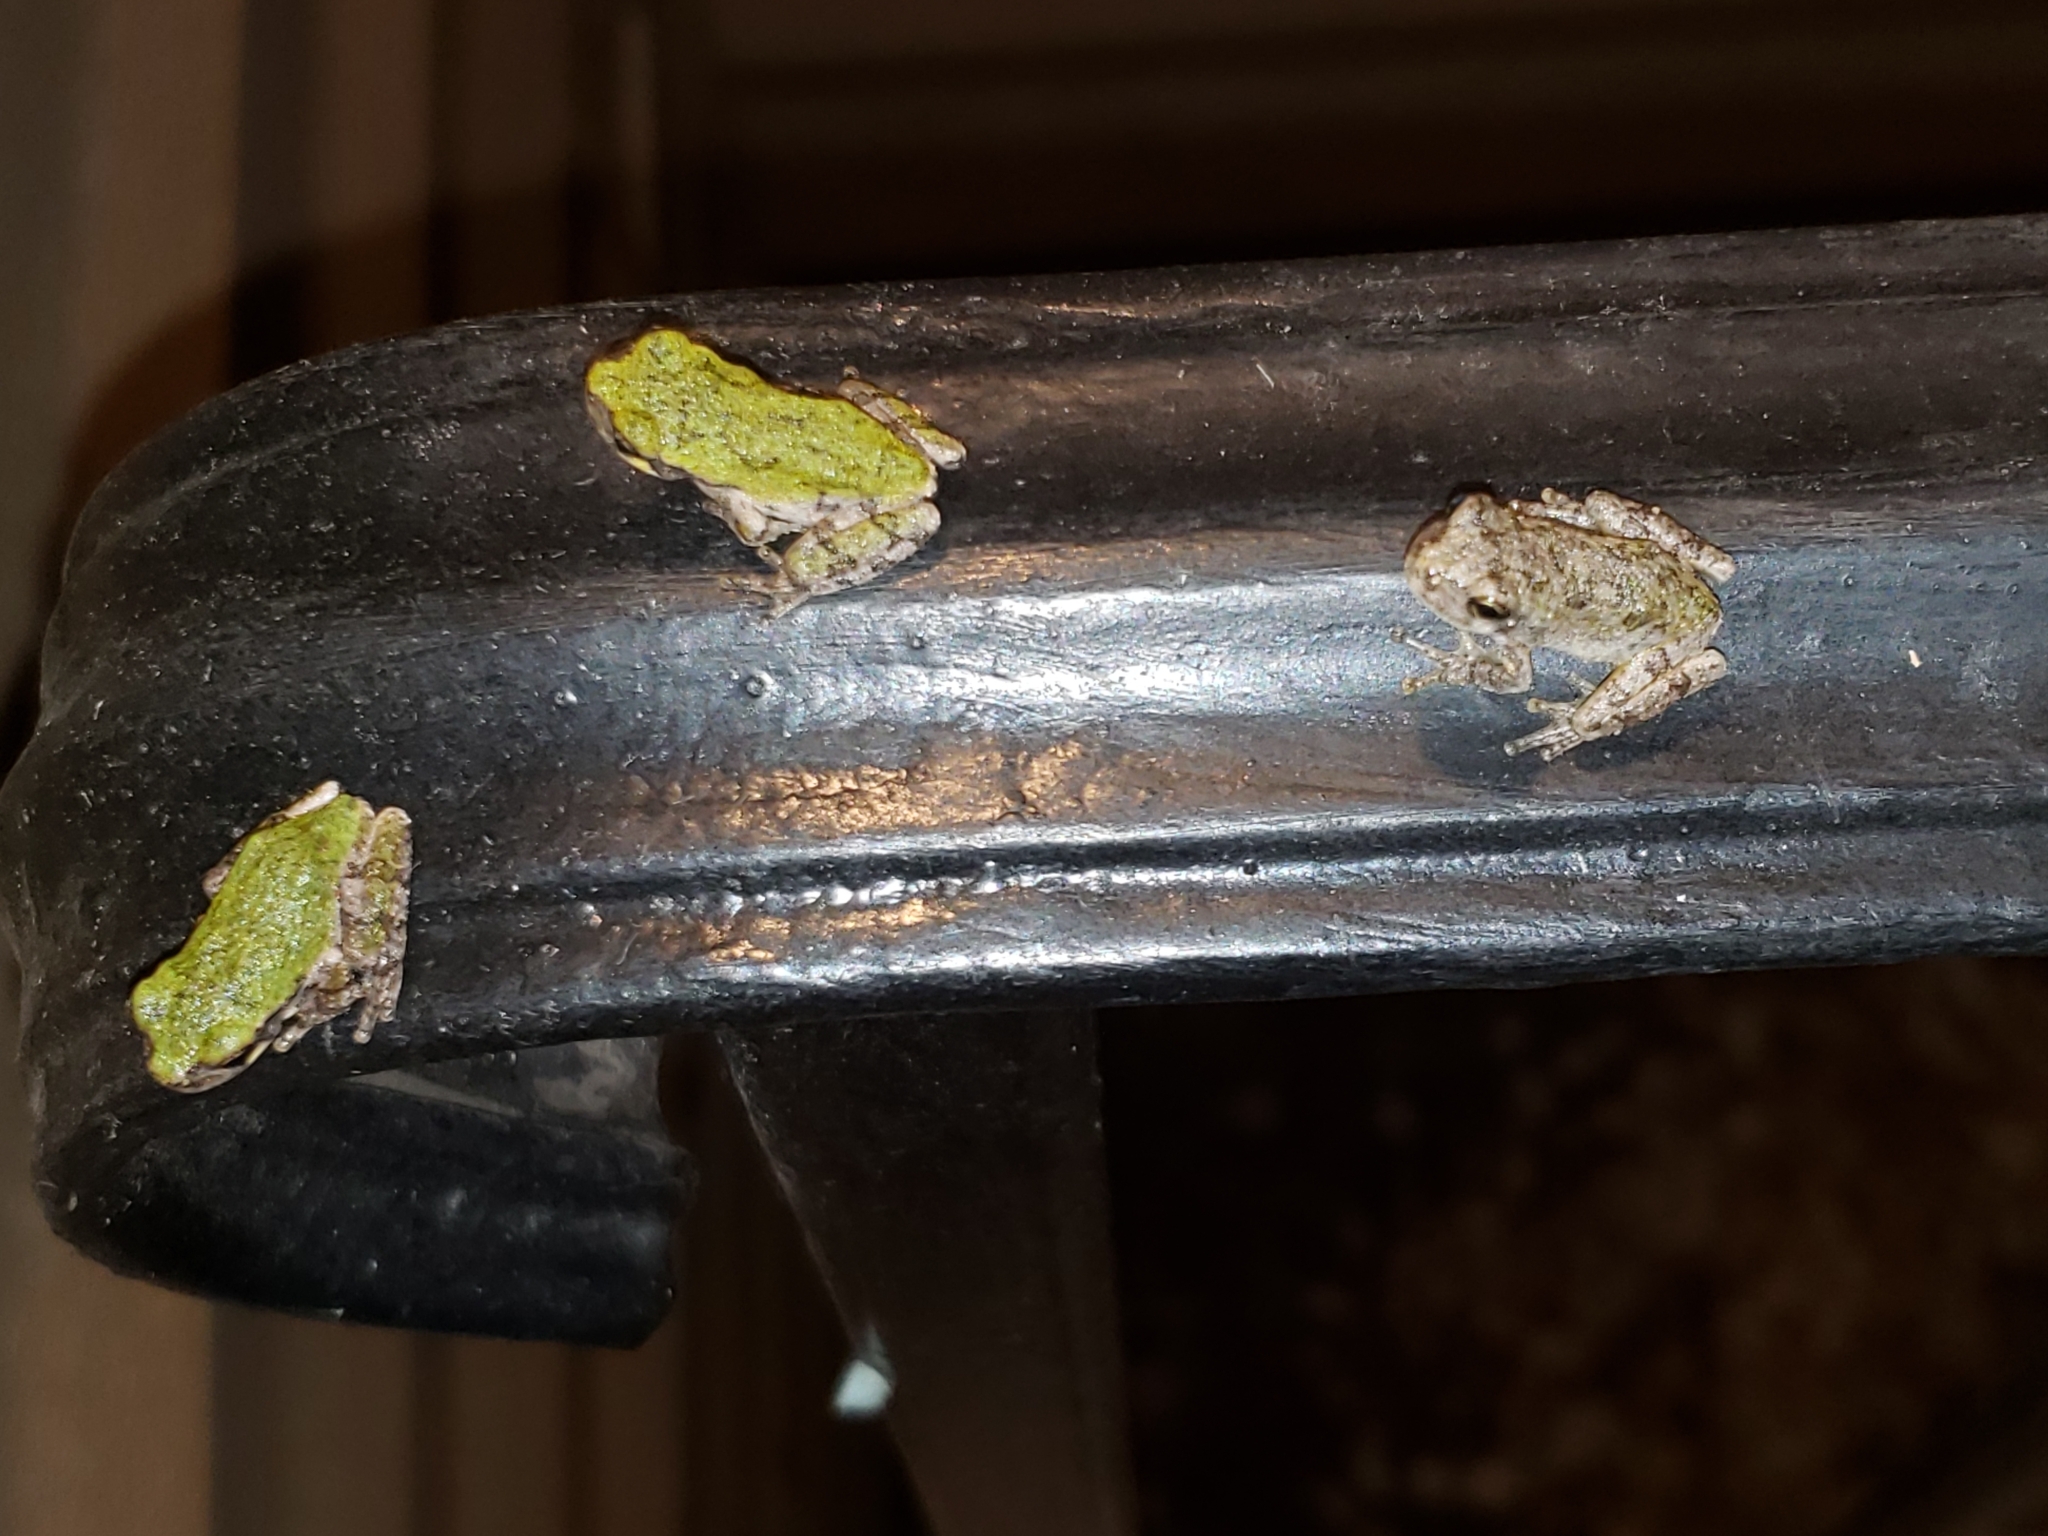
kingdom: Animalia
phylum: Chordata
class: Amphibia
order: Anura
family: Hylidae
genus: Hyla
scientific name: Hyla
